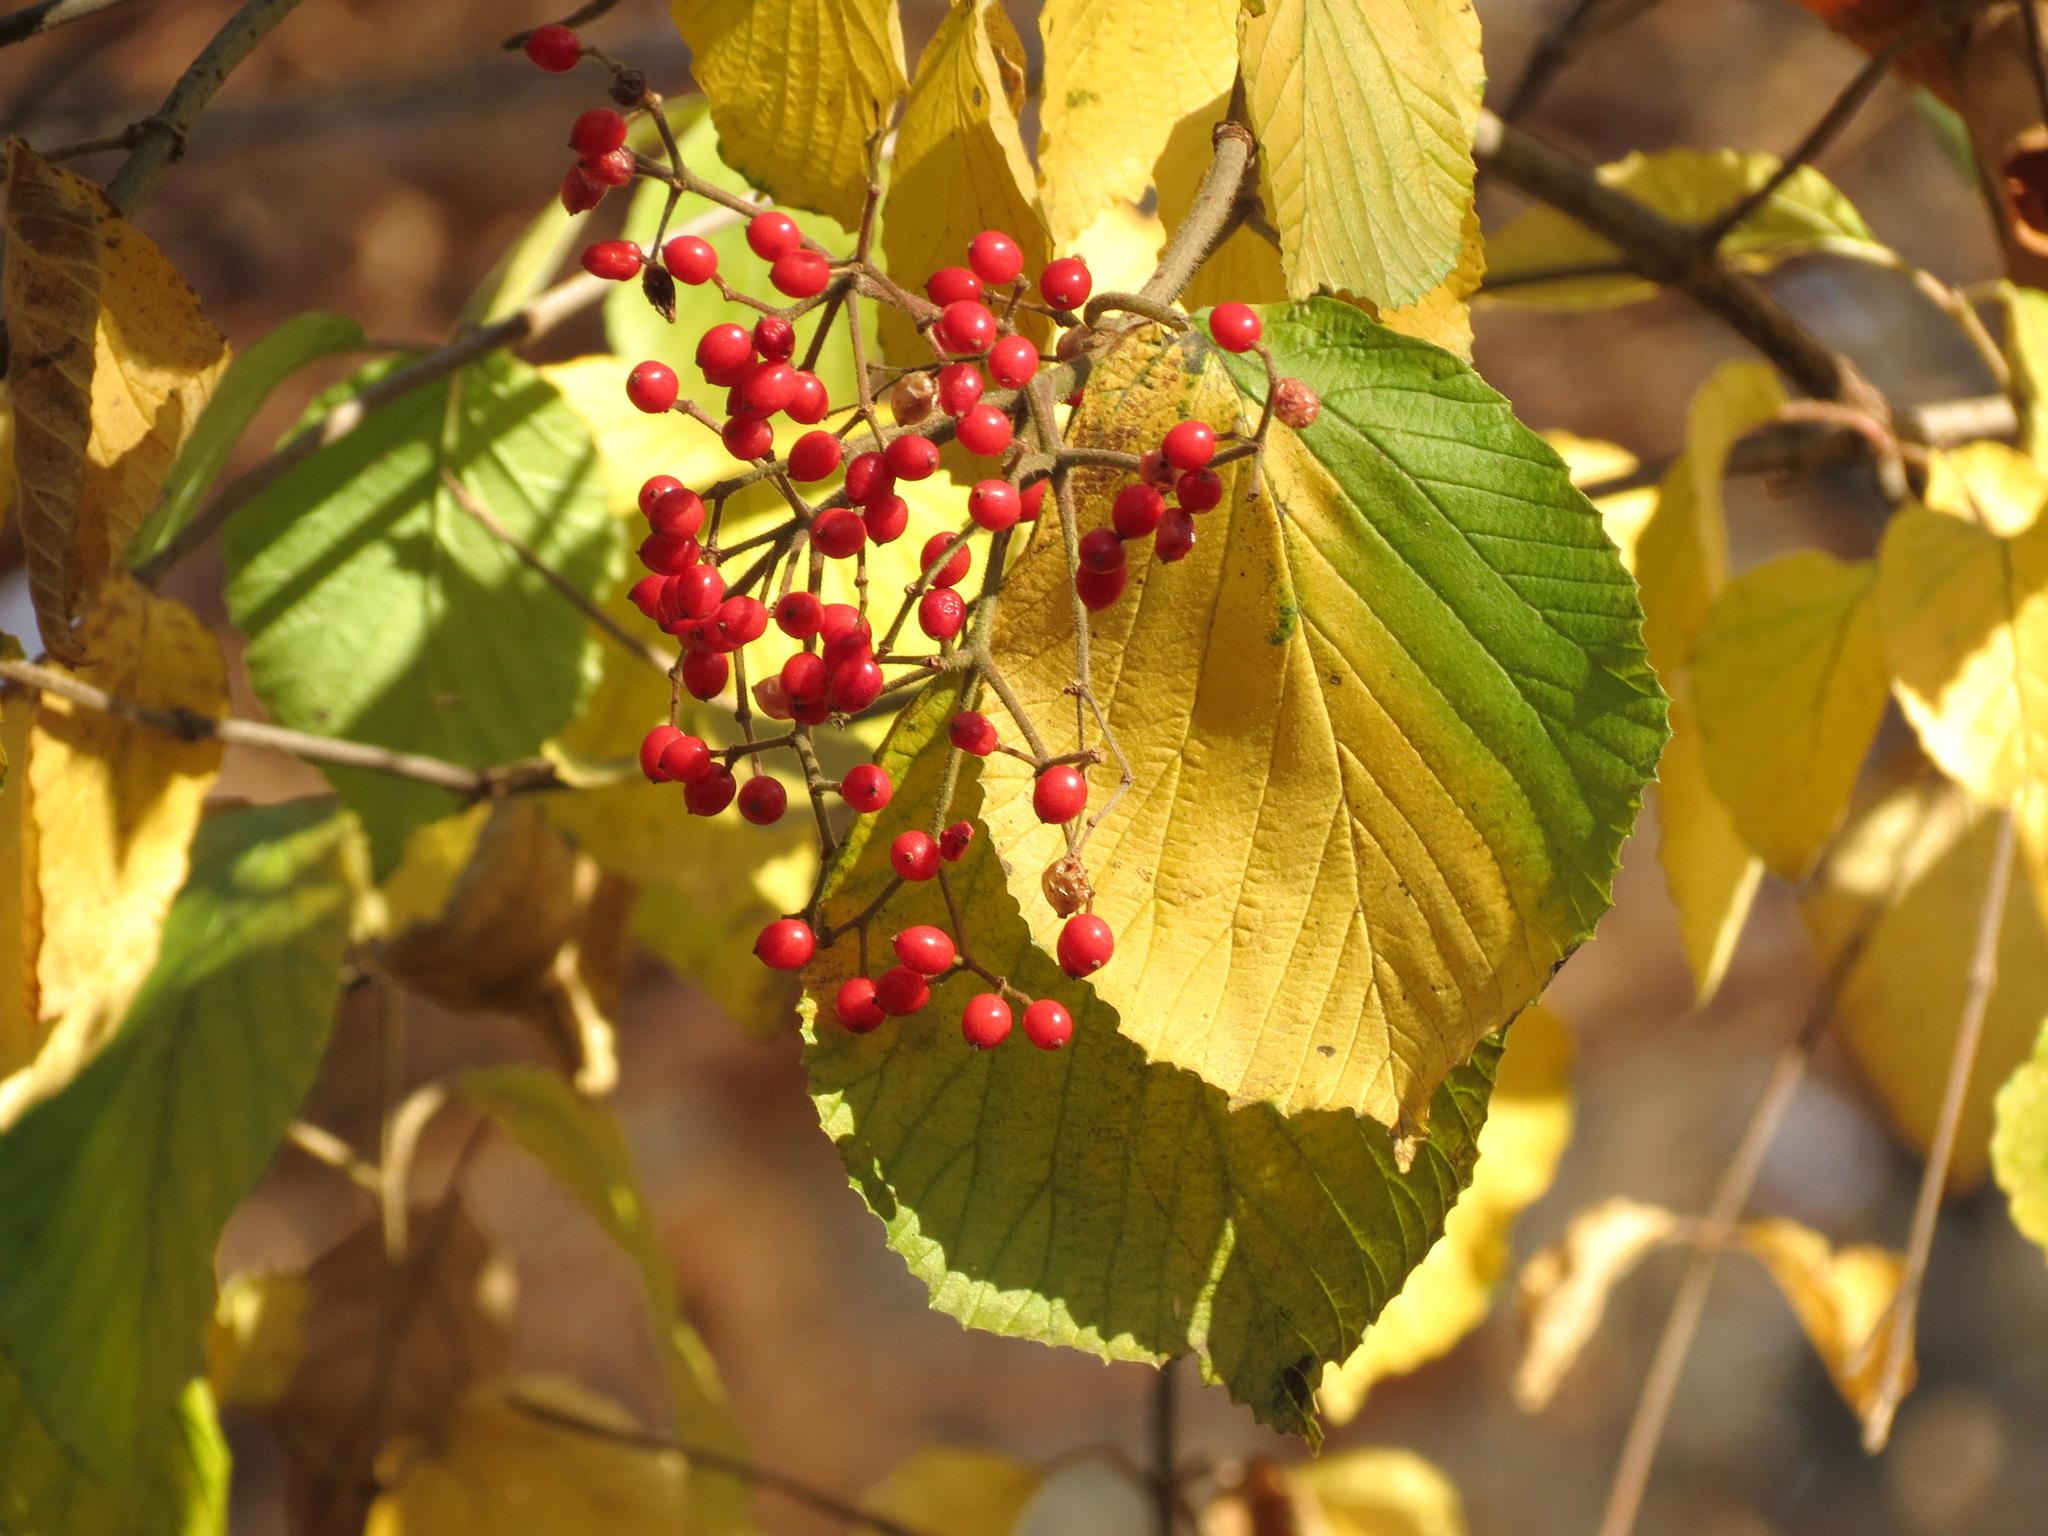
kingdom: Plantae
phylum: Tracheophyta
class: Magnoliopsida
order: Dipsacales
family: Viburnaceae
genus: Viburnum
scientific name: Viburnum dilatatum
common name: Linden arrowwood
